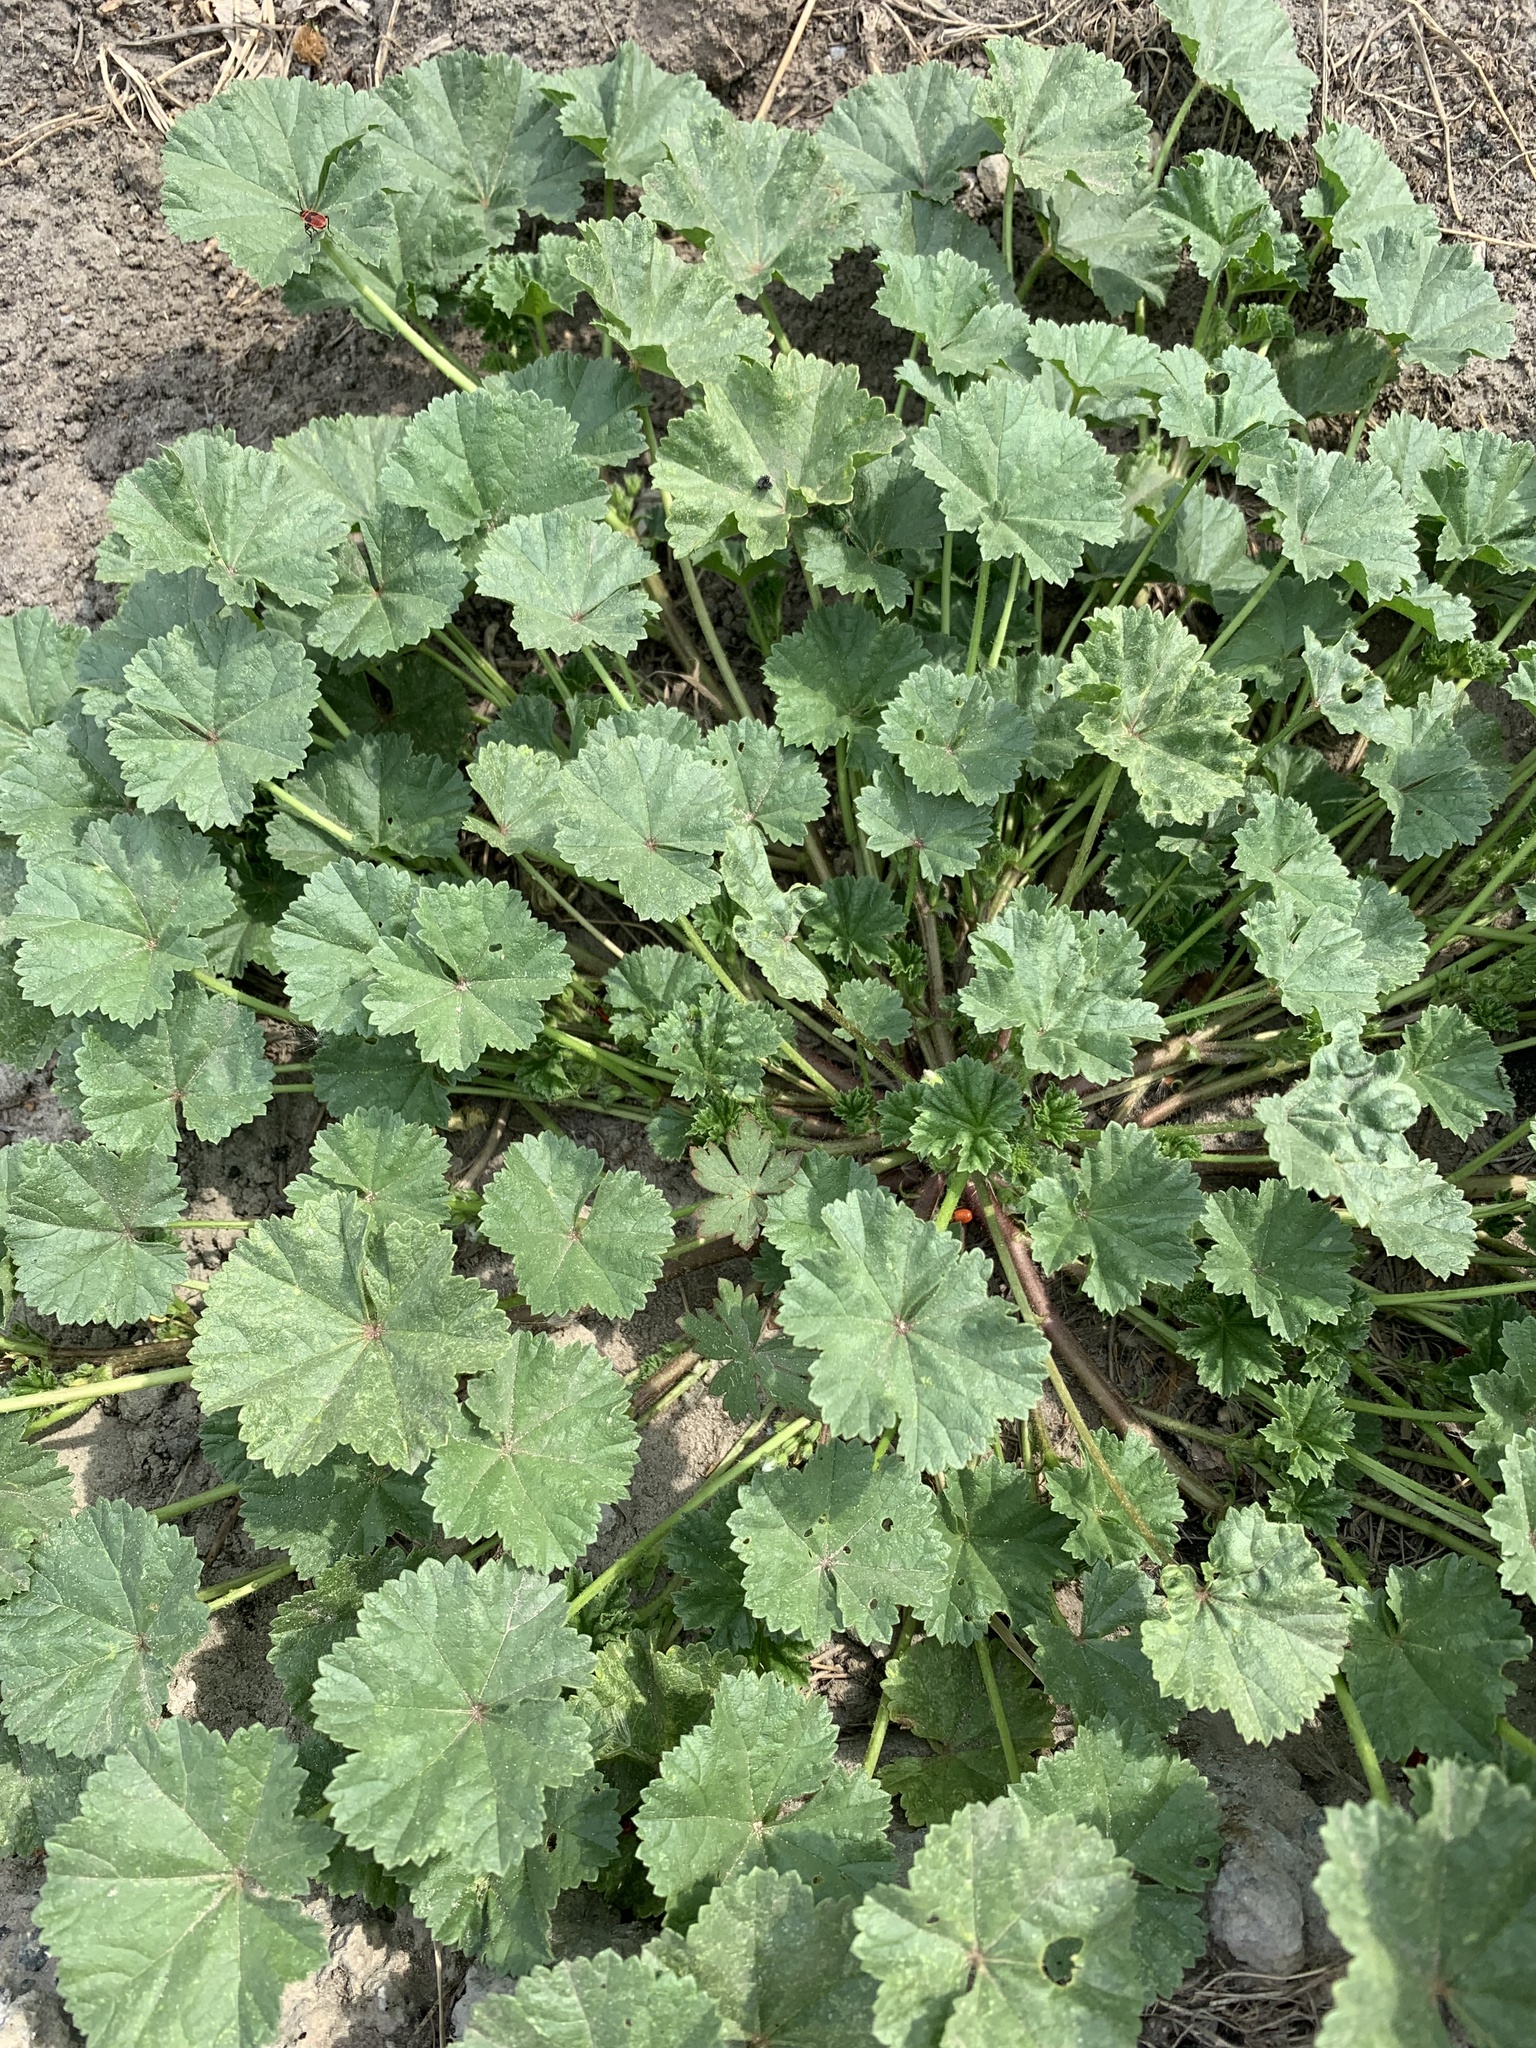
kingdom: Plantae
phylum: Tracheophyta
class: Magnoliopsida
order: Malvales
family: Malvaceae
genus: Malva
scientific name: Malva pusilla
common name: Small mallow
